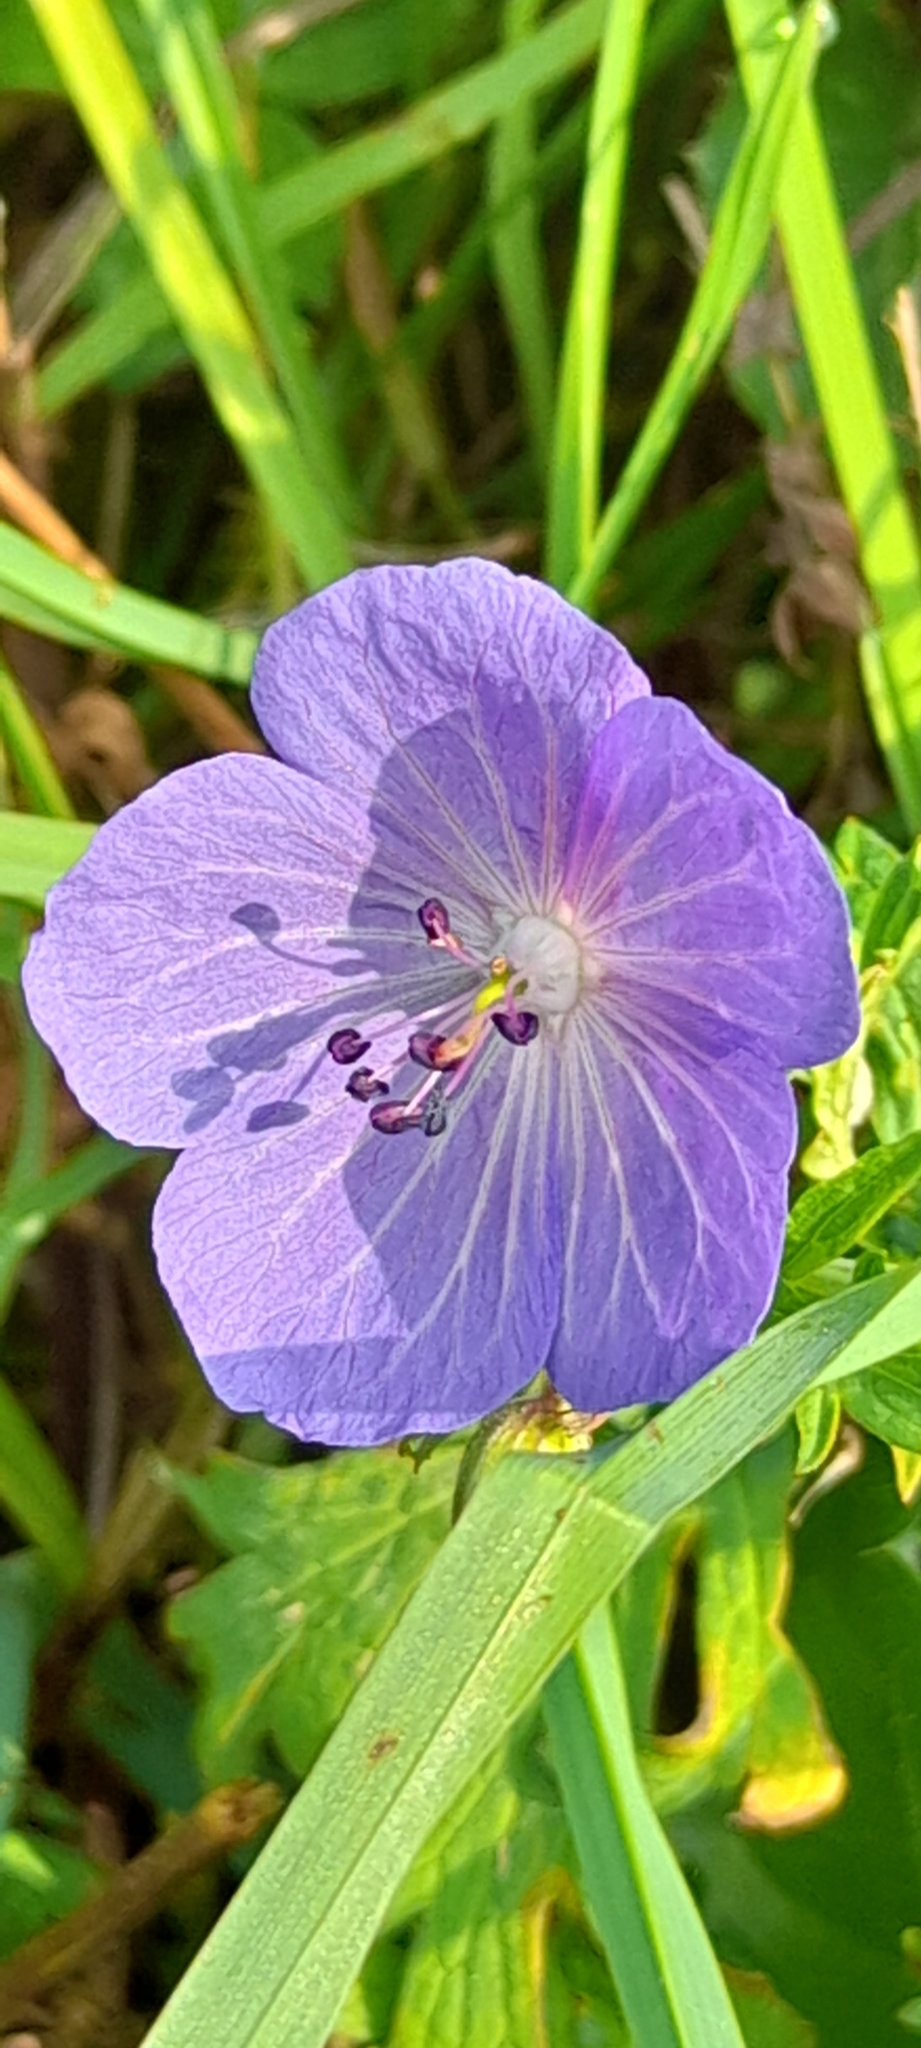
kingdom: Plantae
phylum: Tracheophyta
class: Magnoliopsida
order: Geraniales
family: Geraniaceae
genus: Geranium
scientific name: Geranium pratense
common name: Meadow crane's-bill
